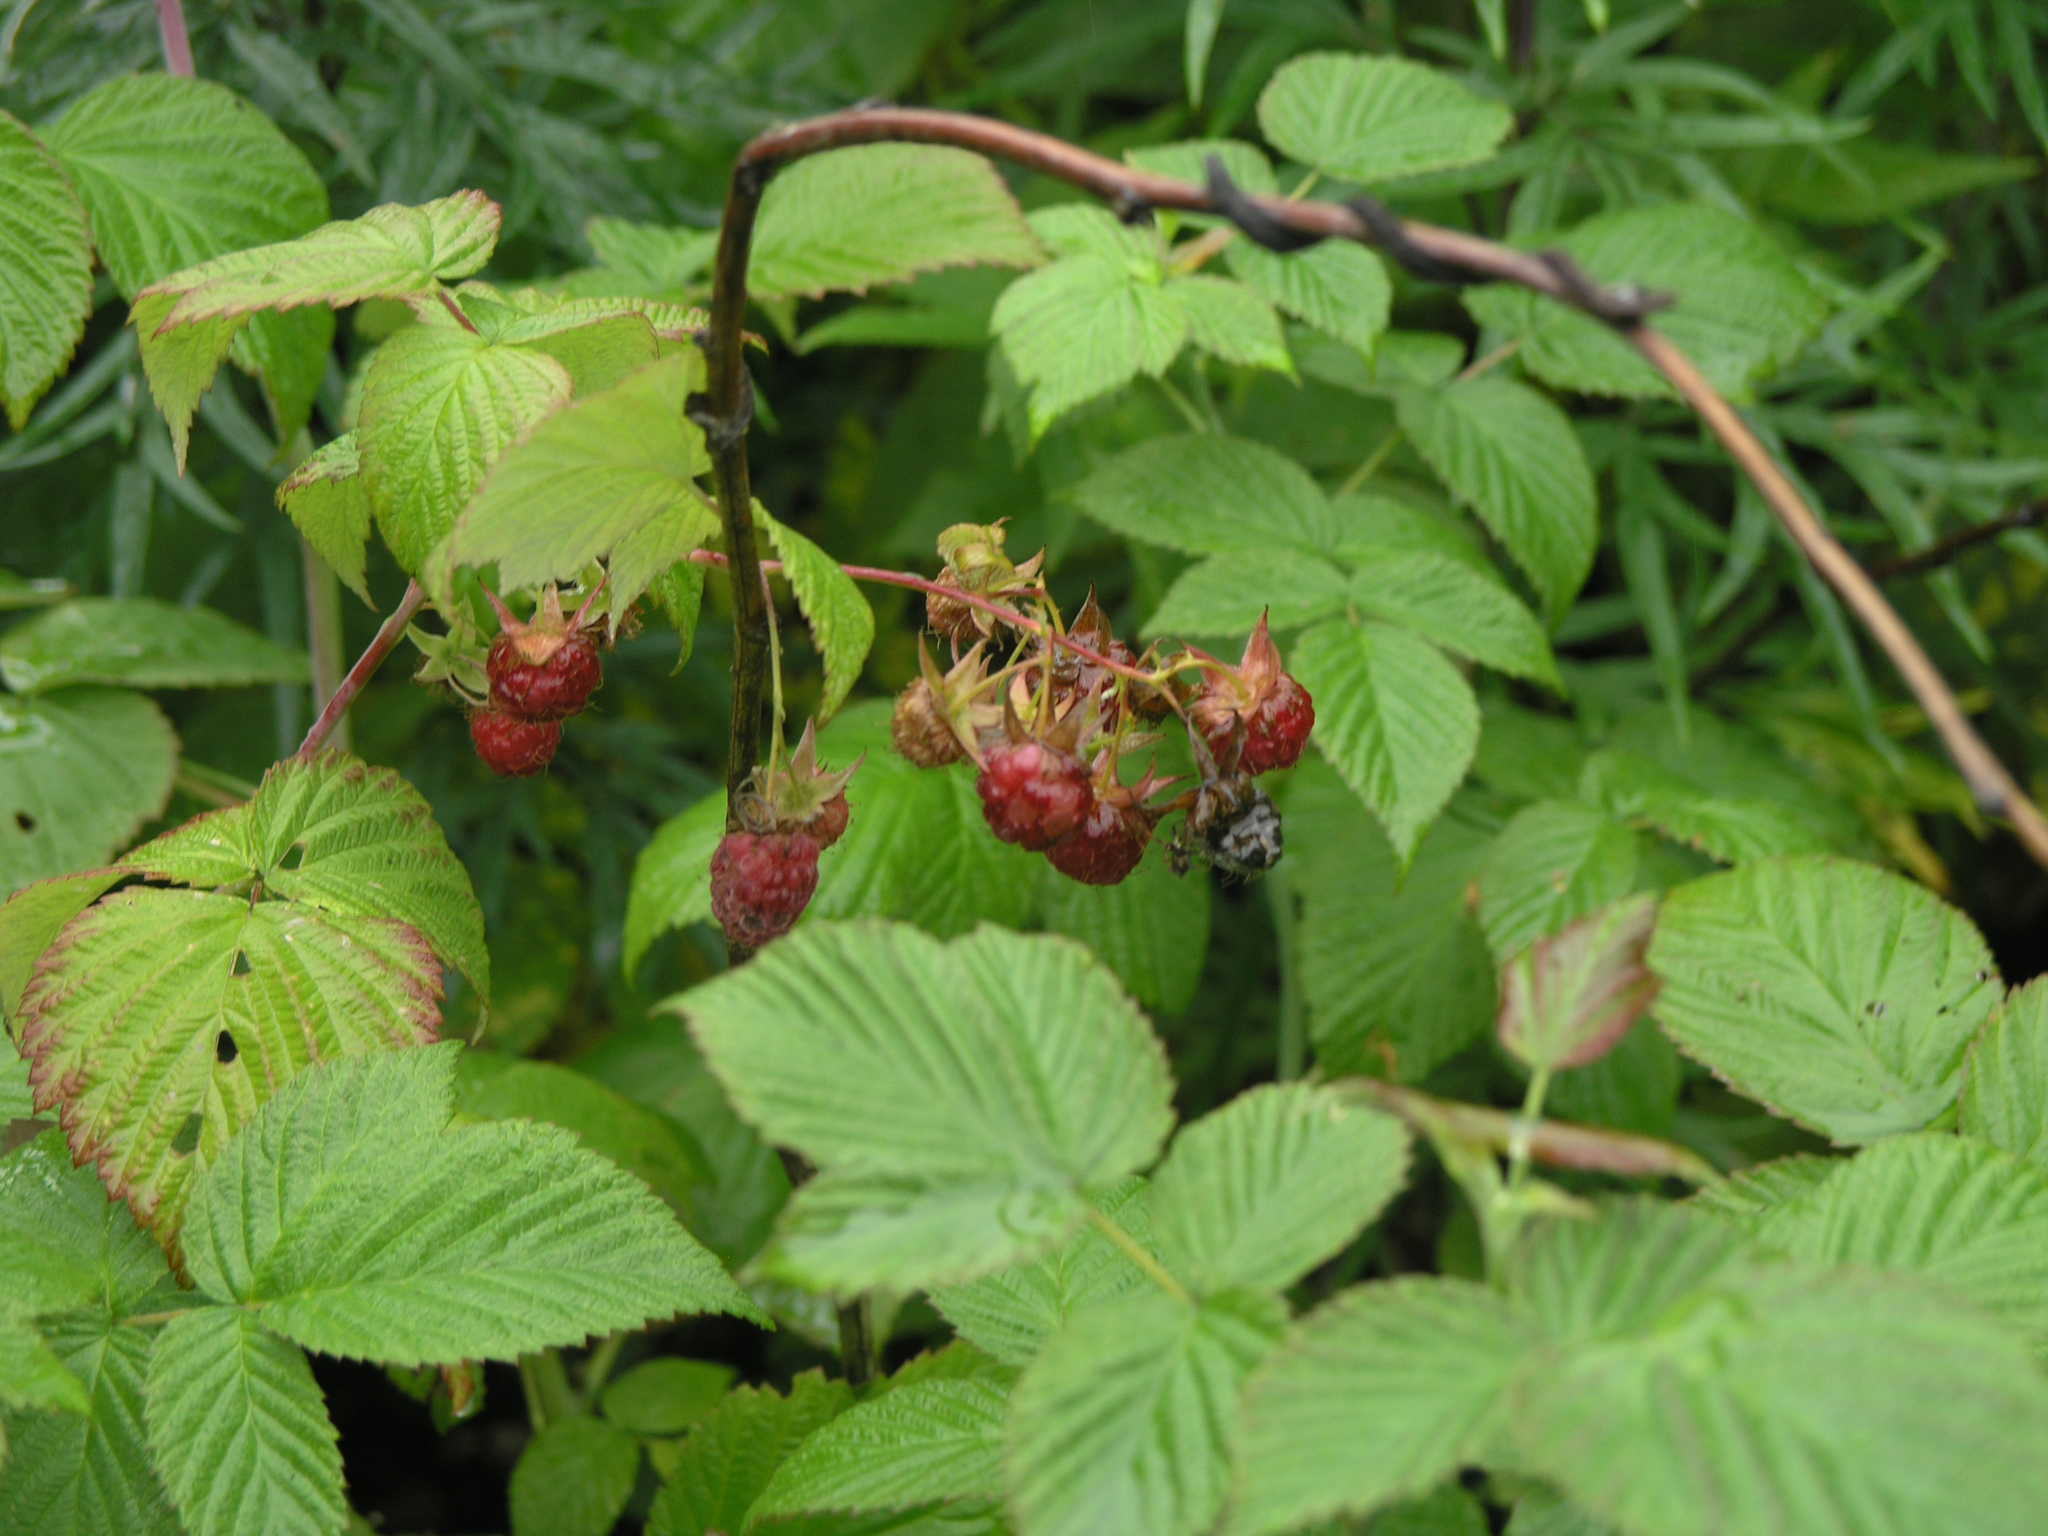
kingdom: Plantae
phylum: Tracheophyta
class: Magnoliopsida
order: Rosales
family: Rosaceae
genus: Rubus
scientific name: Rubus sachalinensis
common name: Red raspberry
